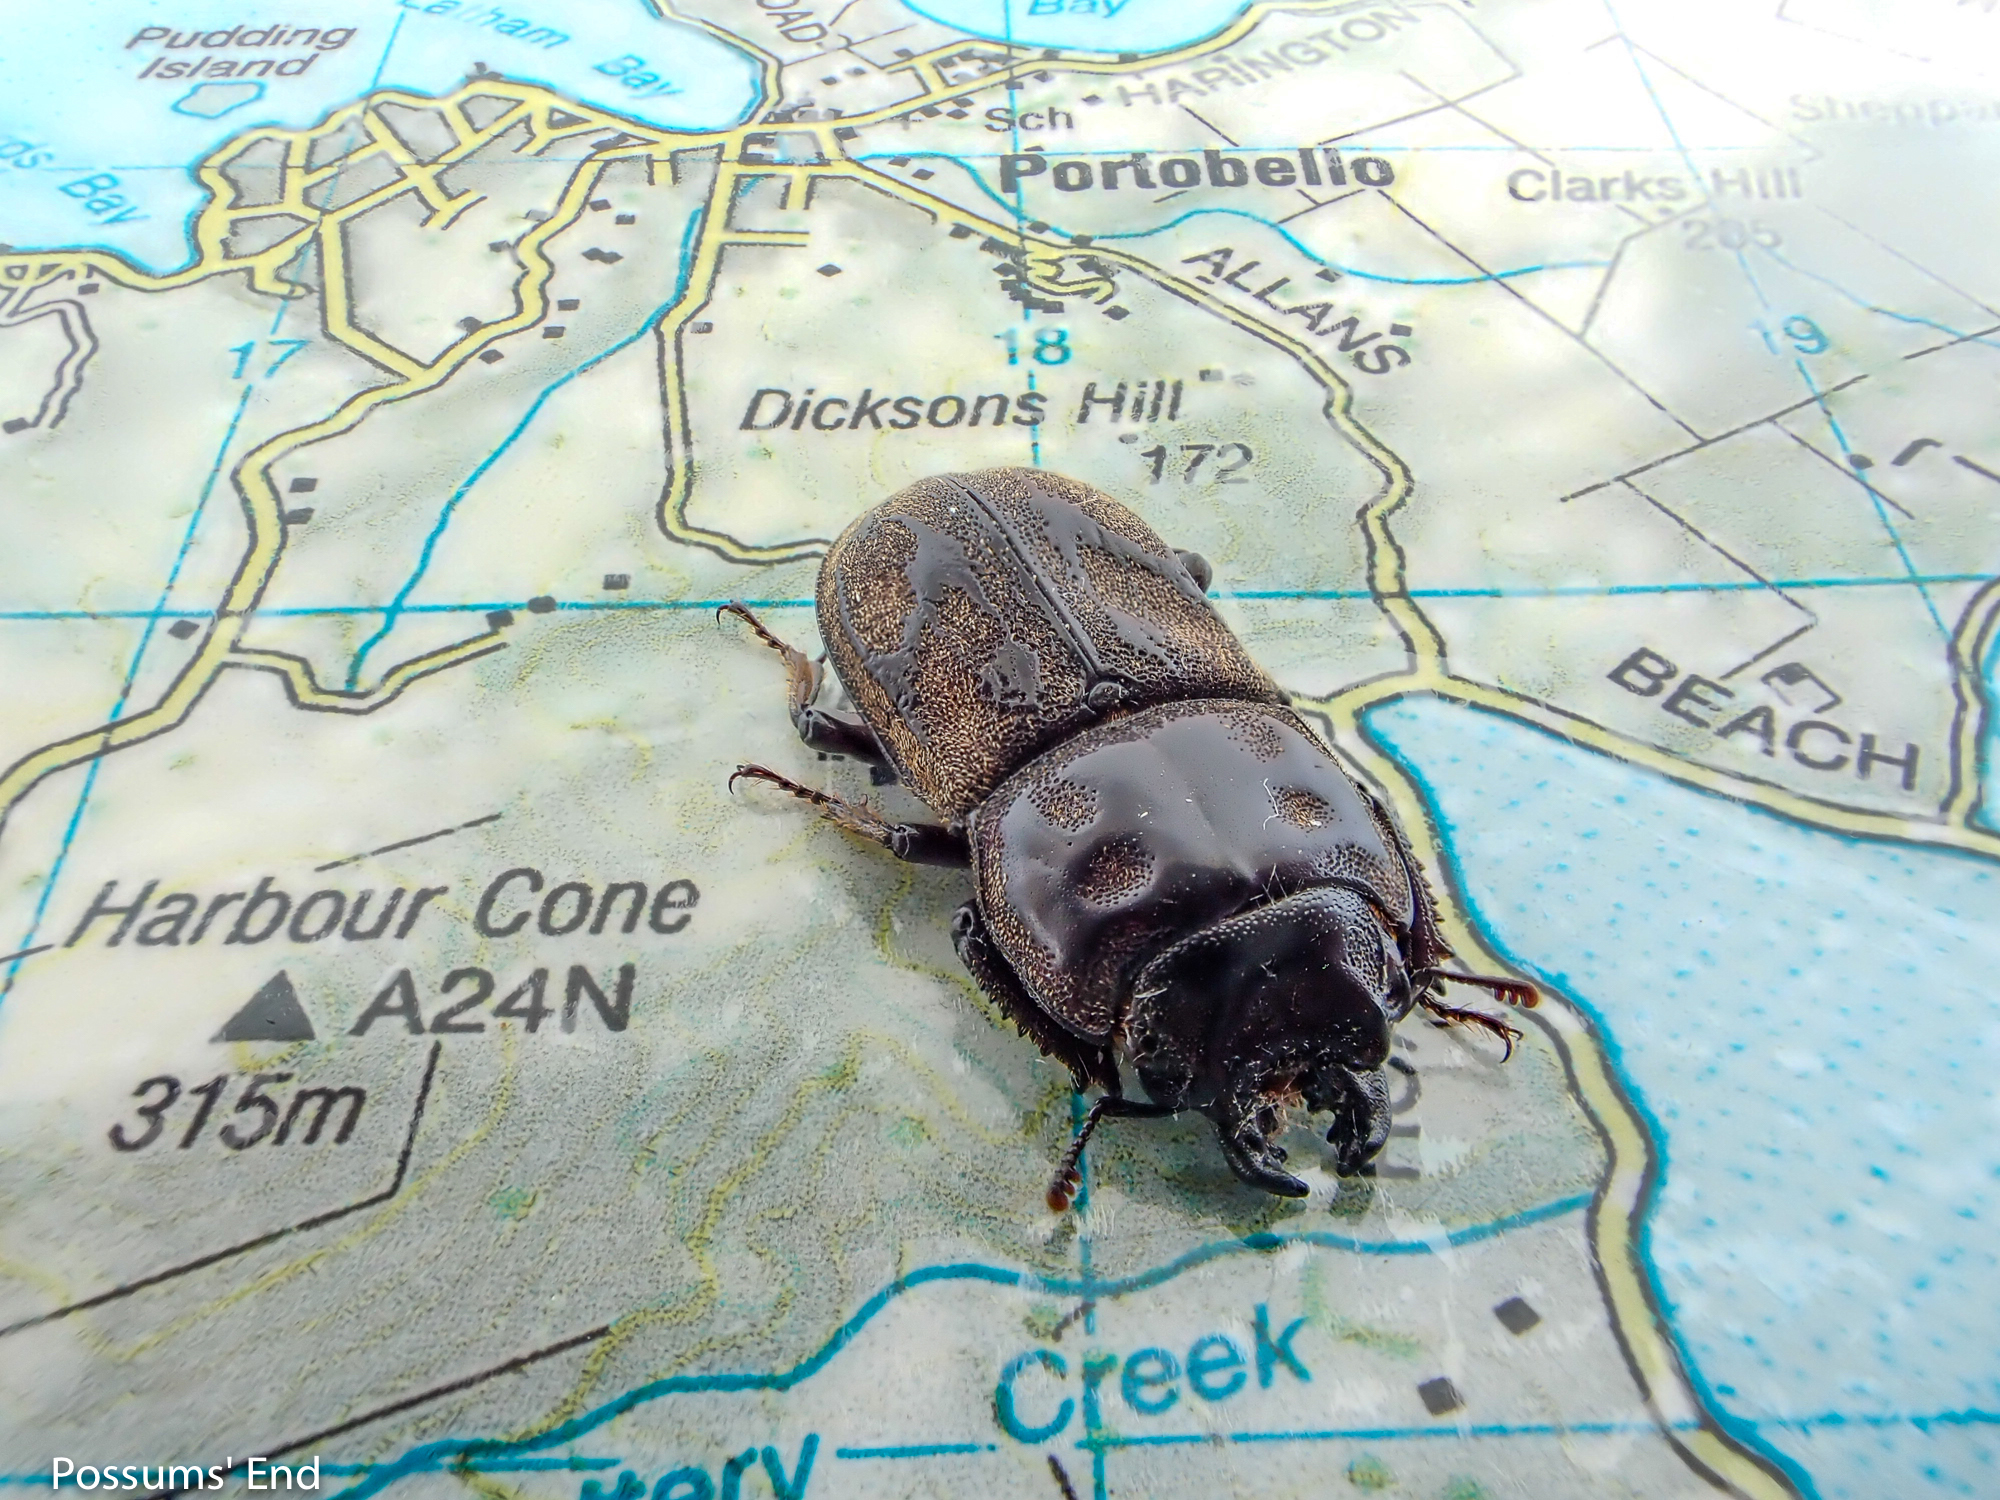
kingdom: Animalia
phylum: Arthropoda
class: Insecta
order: Coleoptera
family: Lucanidae
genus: Paralissotes
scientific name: Paralissotes reticulatus
